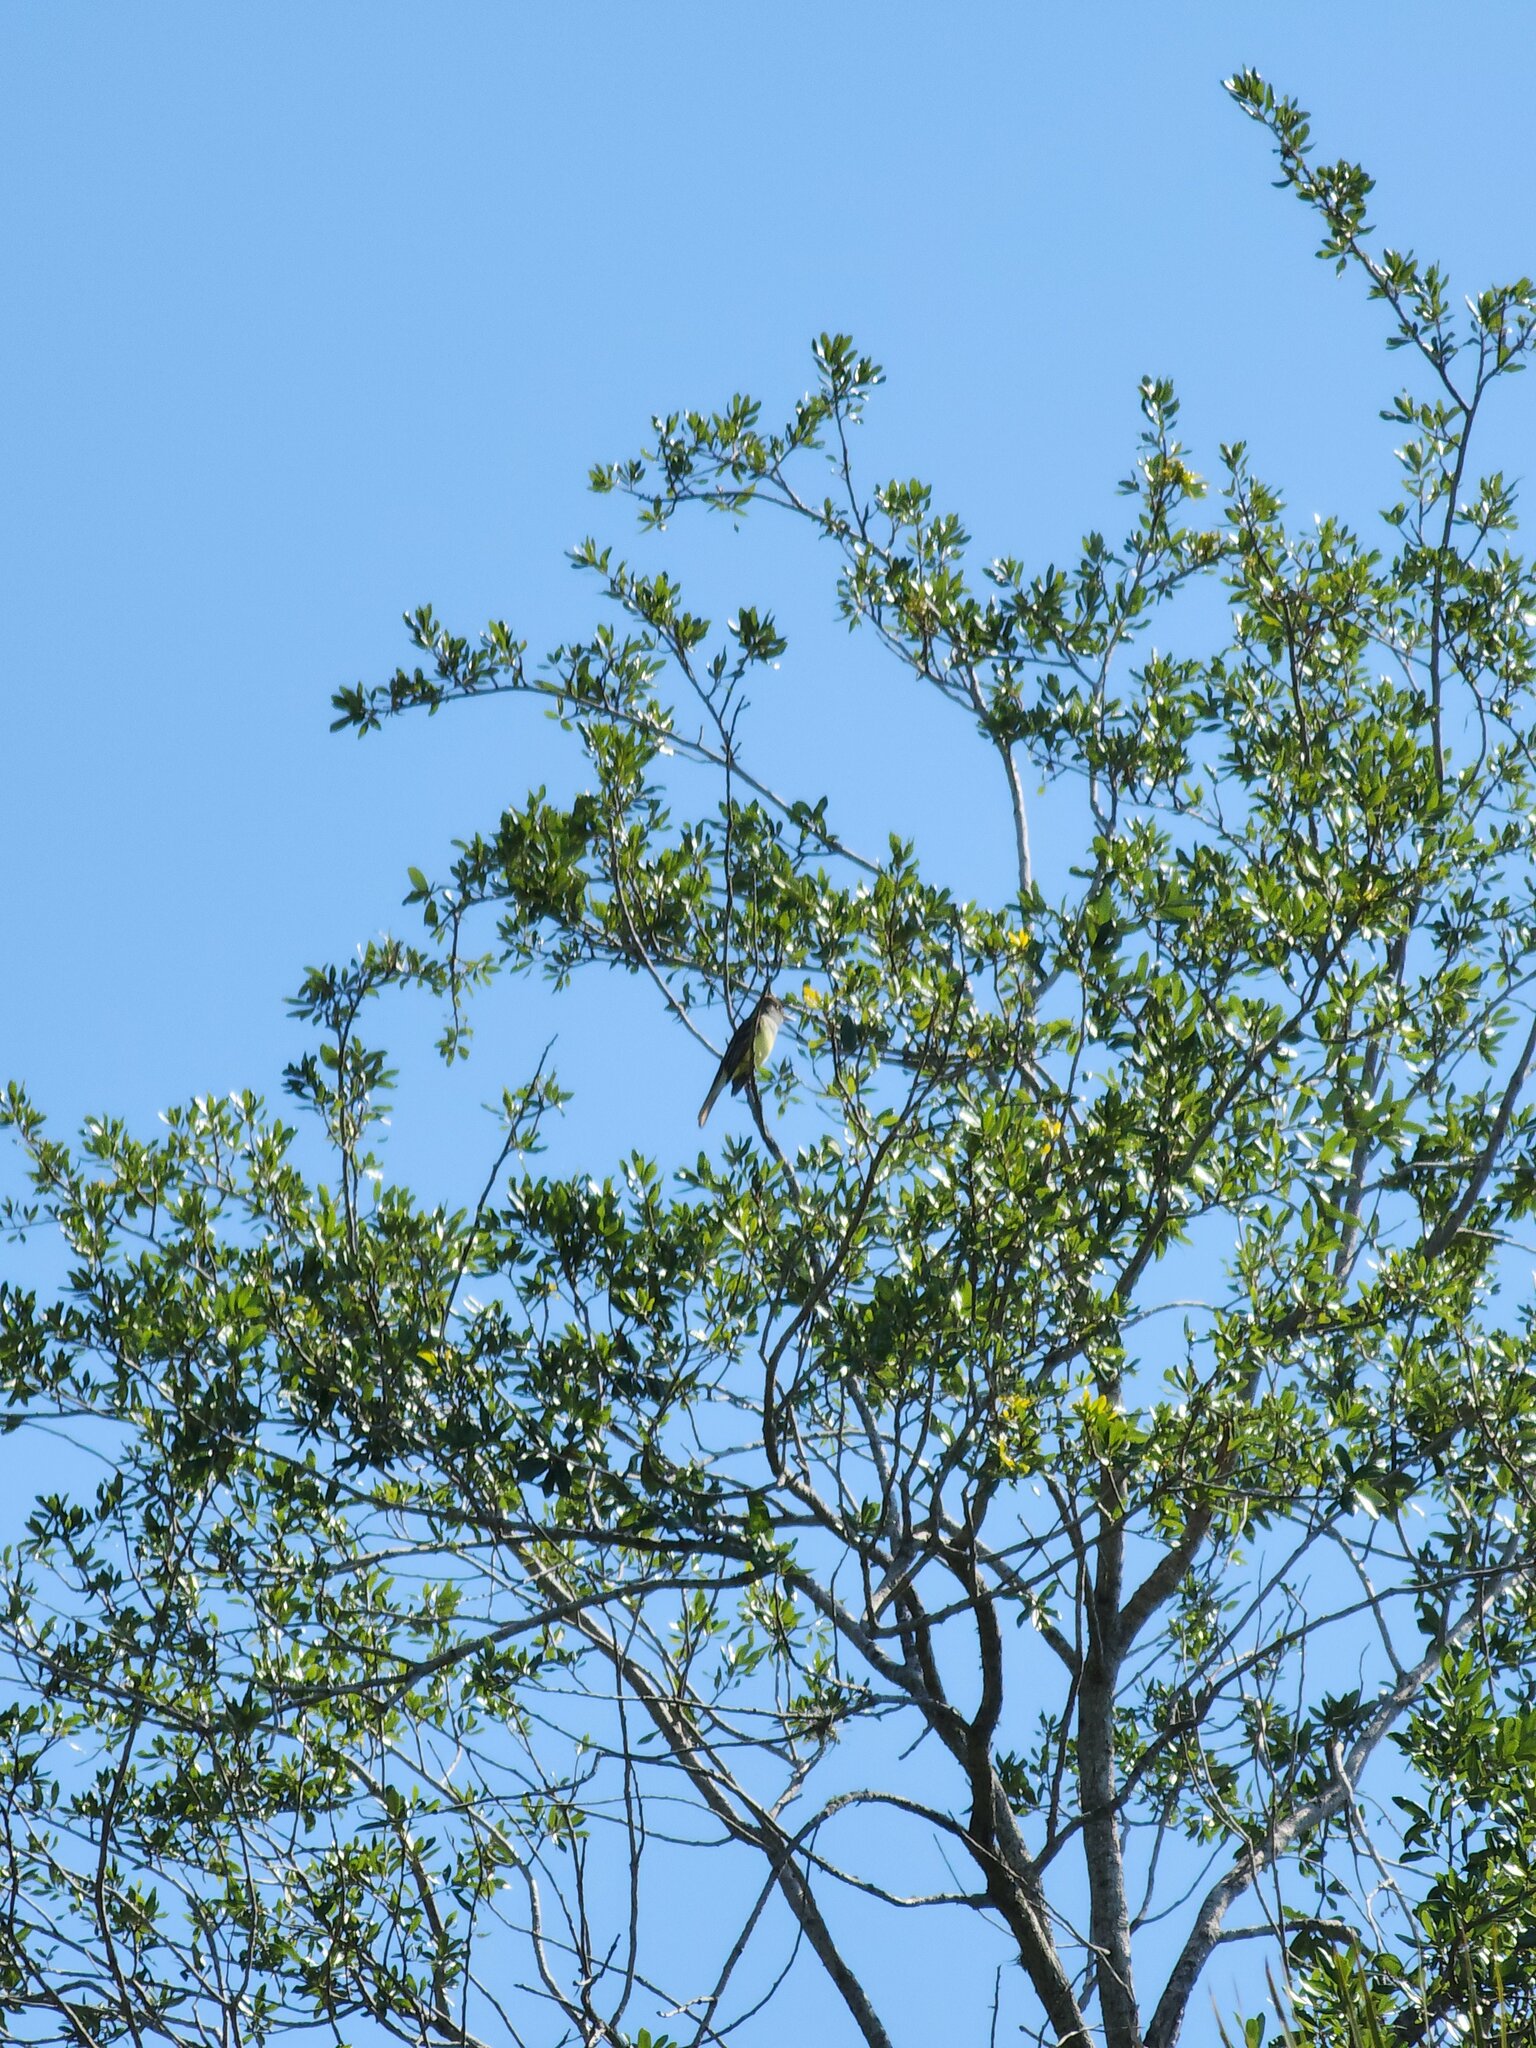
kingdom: Animalia
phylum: Chordata
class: Aves
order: Passeriformes
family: Tyrannidae
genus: Myiarchus
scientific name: Myiarchus crinitus
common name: Great crested flycatcher
